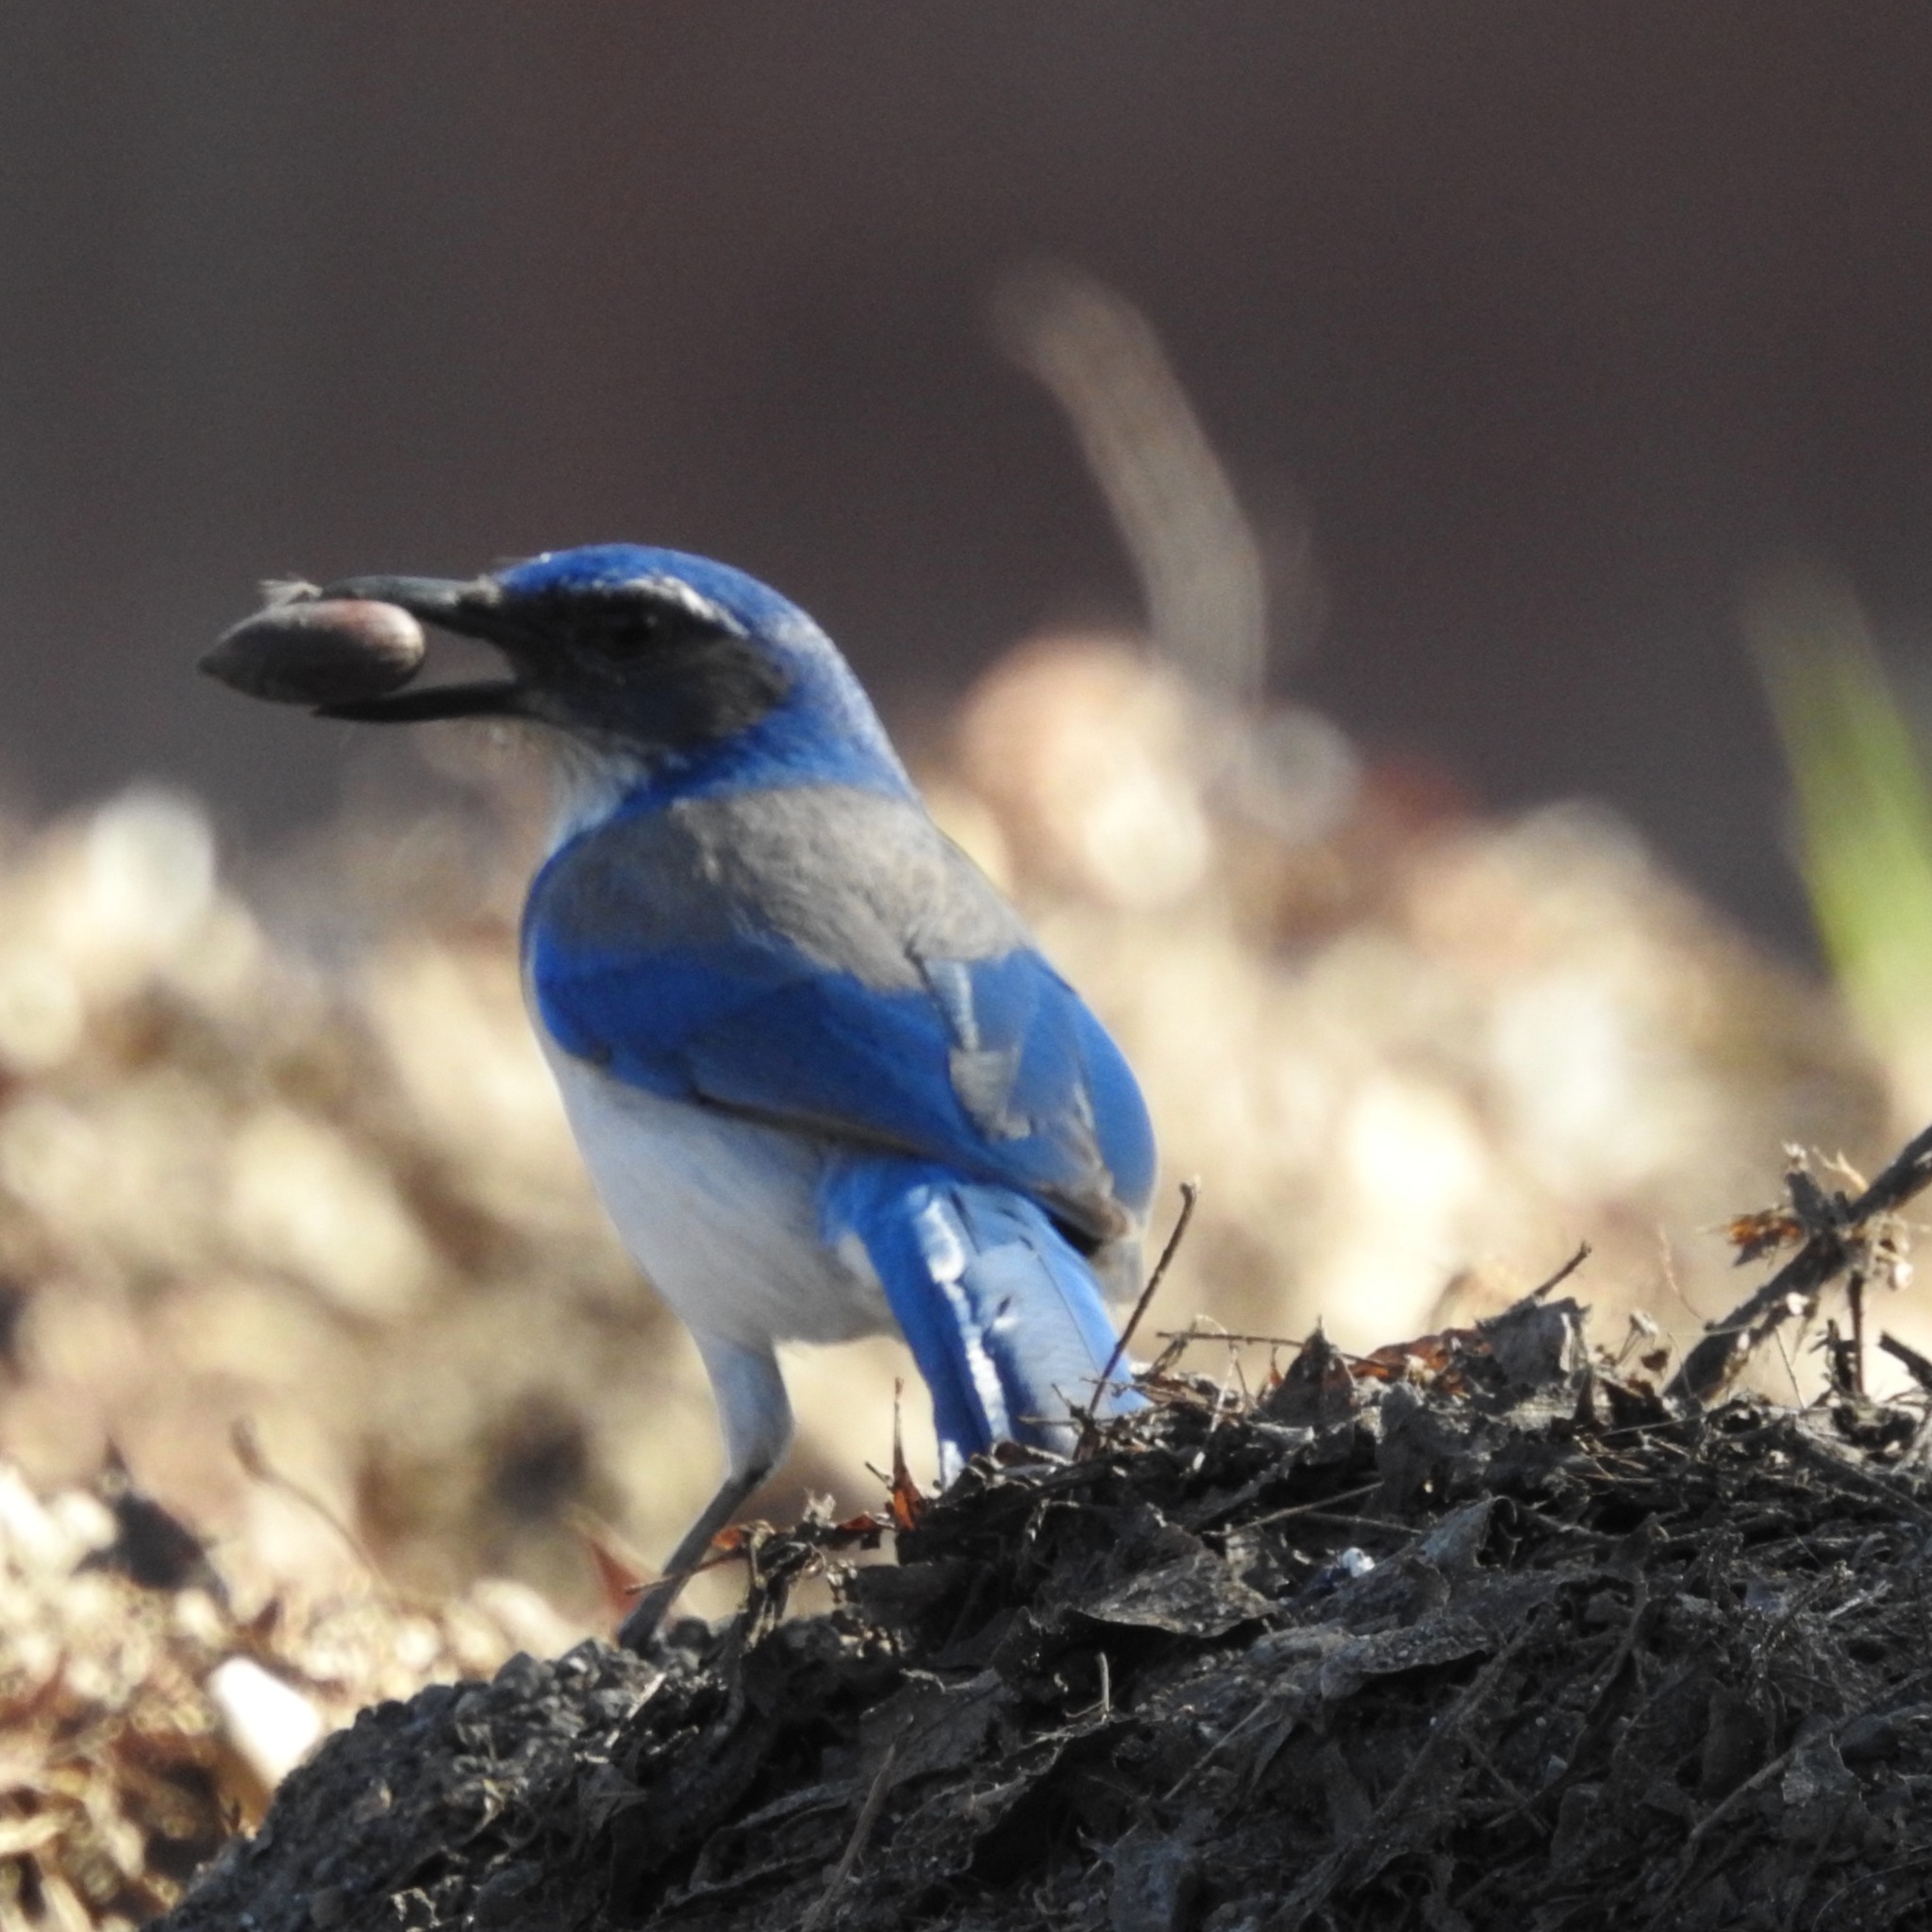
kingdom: Animalia
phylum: Chordata
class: Aves
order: Passeriformes
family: Corvidae
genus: Aphelocoma
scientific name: Aphelocoma californica
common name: California scrub-jay
